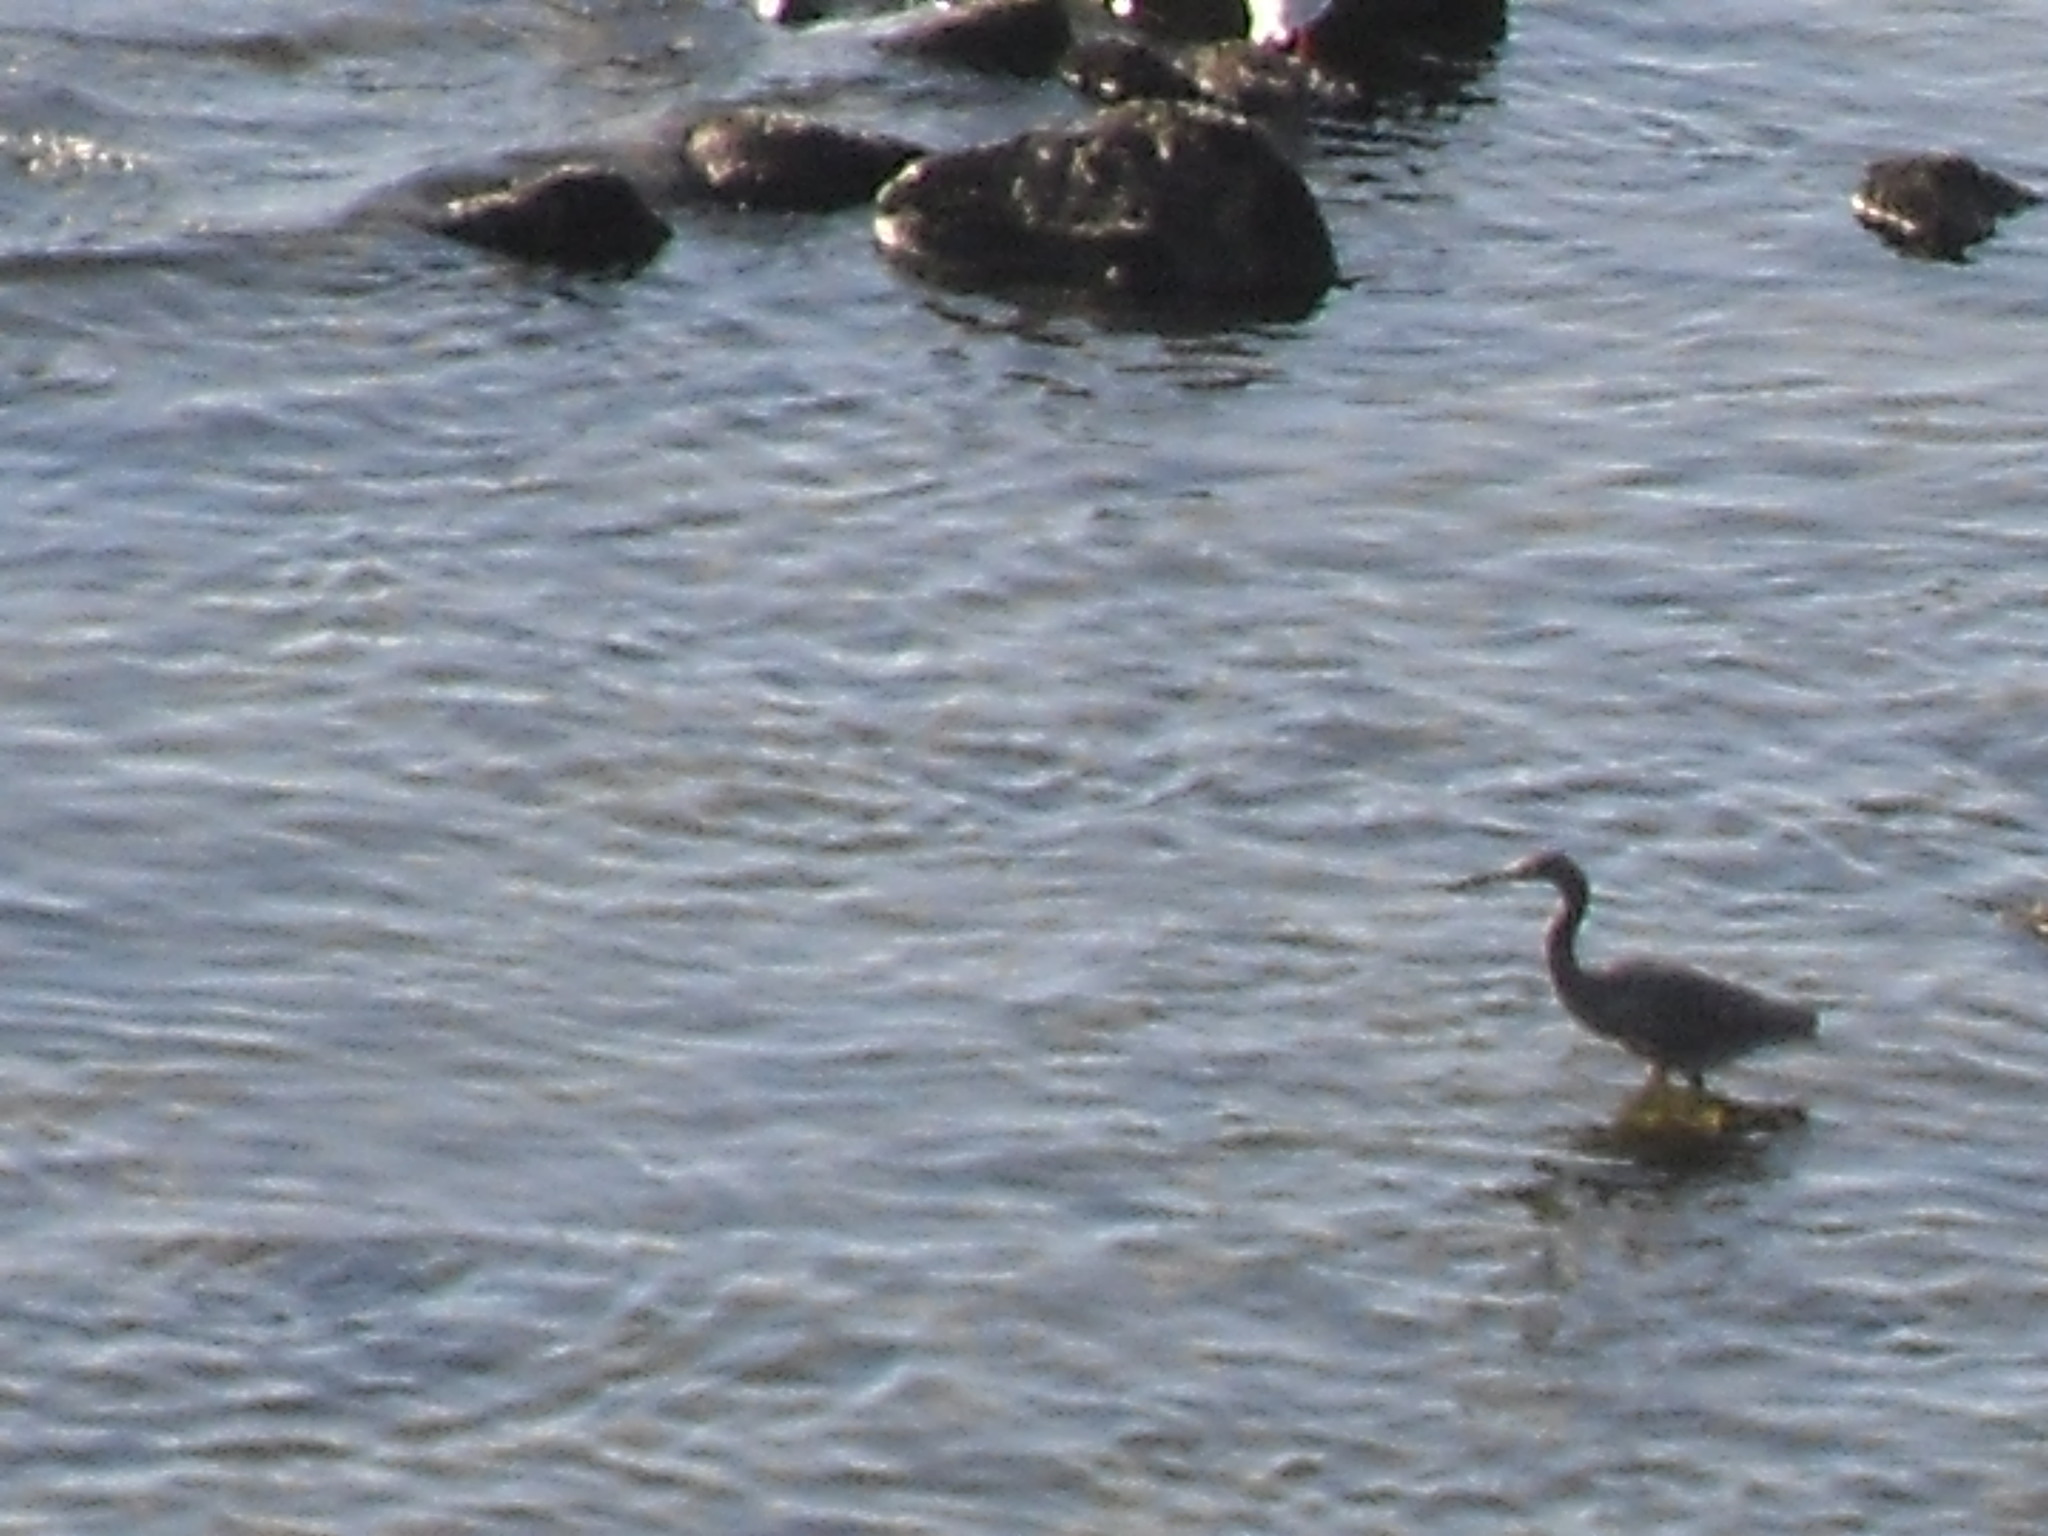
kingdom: Animalia
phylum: Chordata
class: Aves
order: Pelecaniformes
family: Ardeidae
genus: Egretta
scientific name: Egretta sacra
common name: Pacific reef heron
